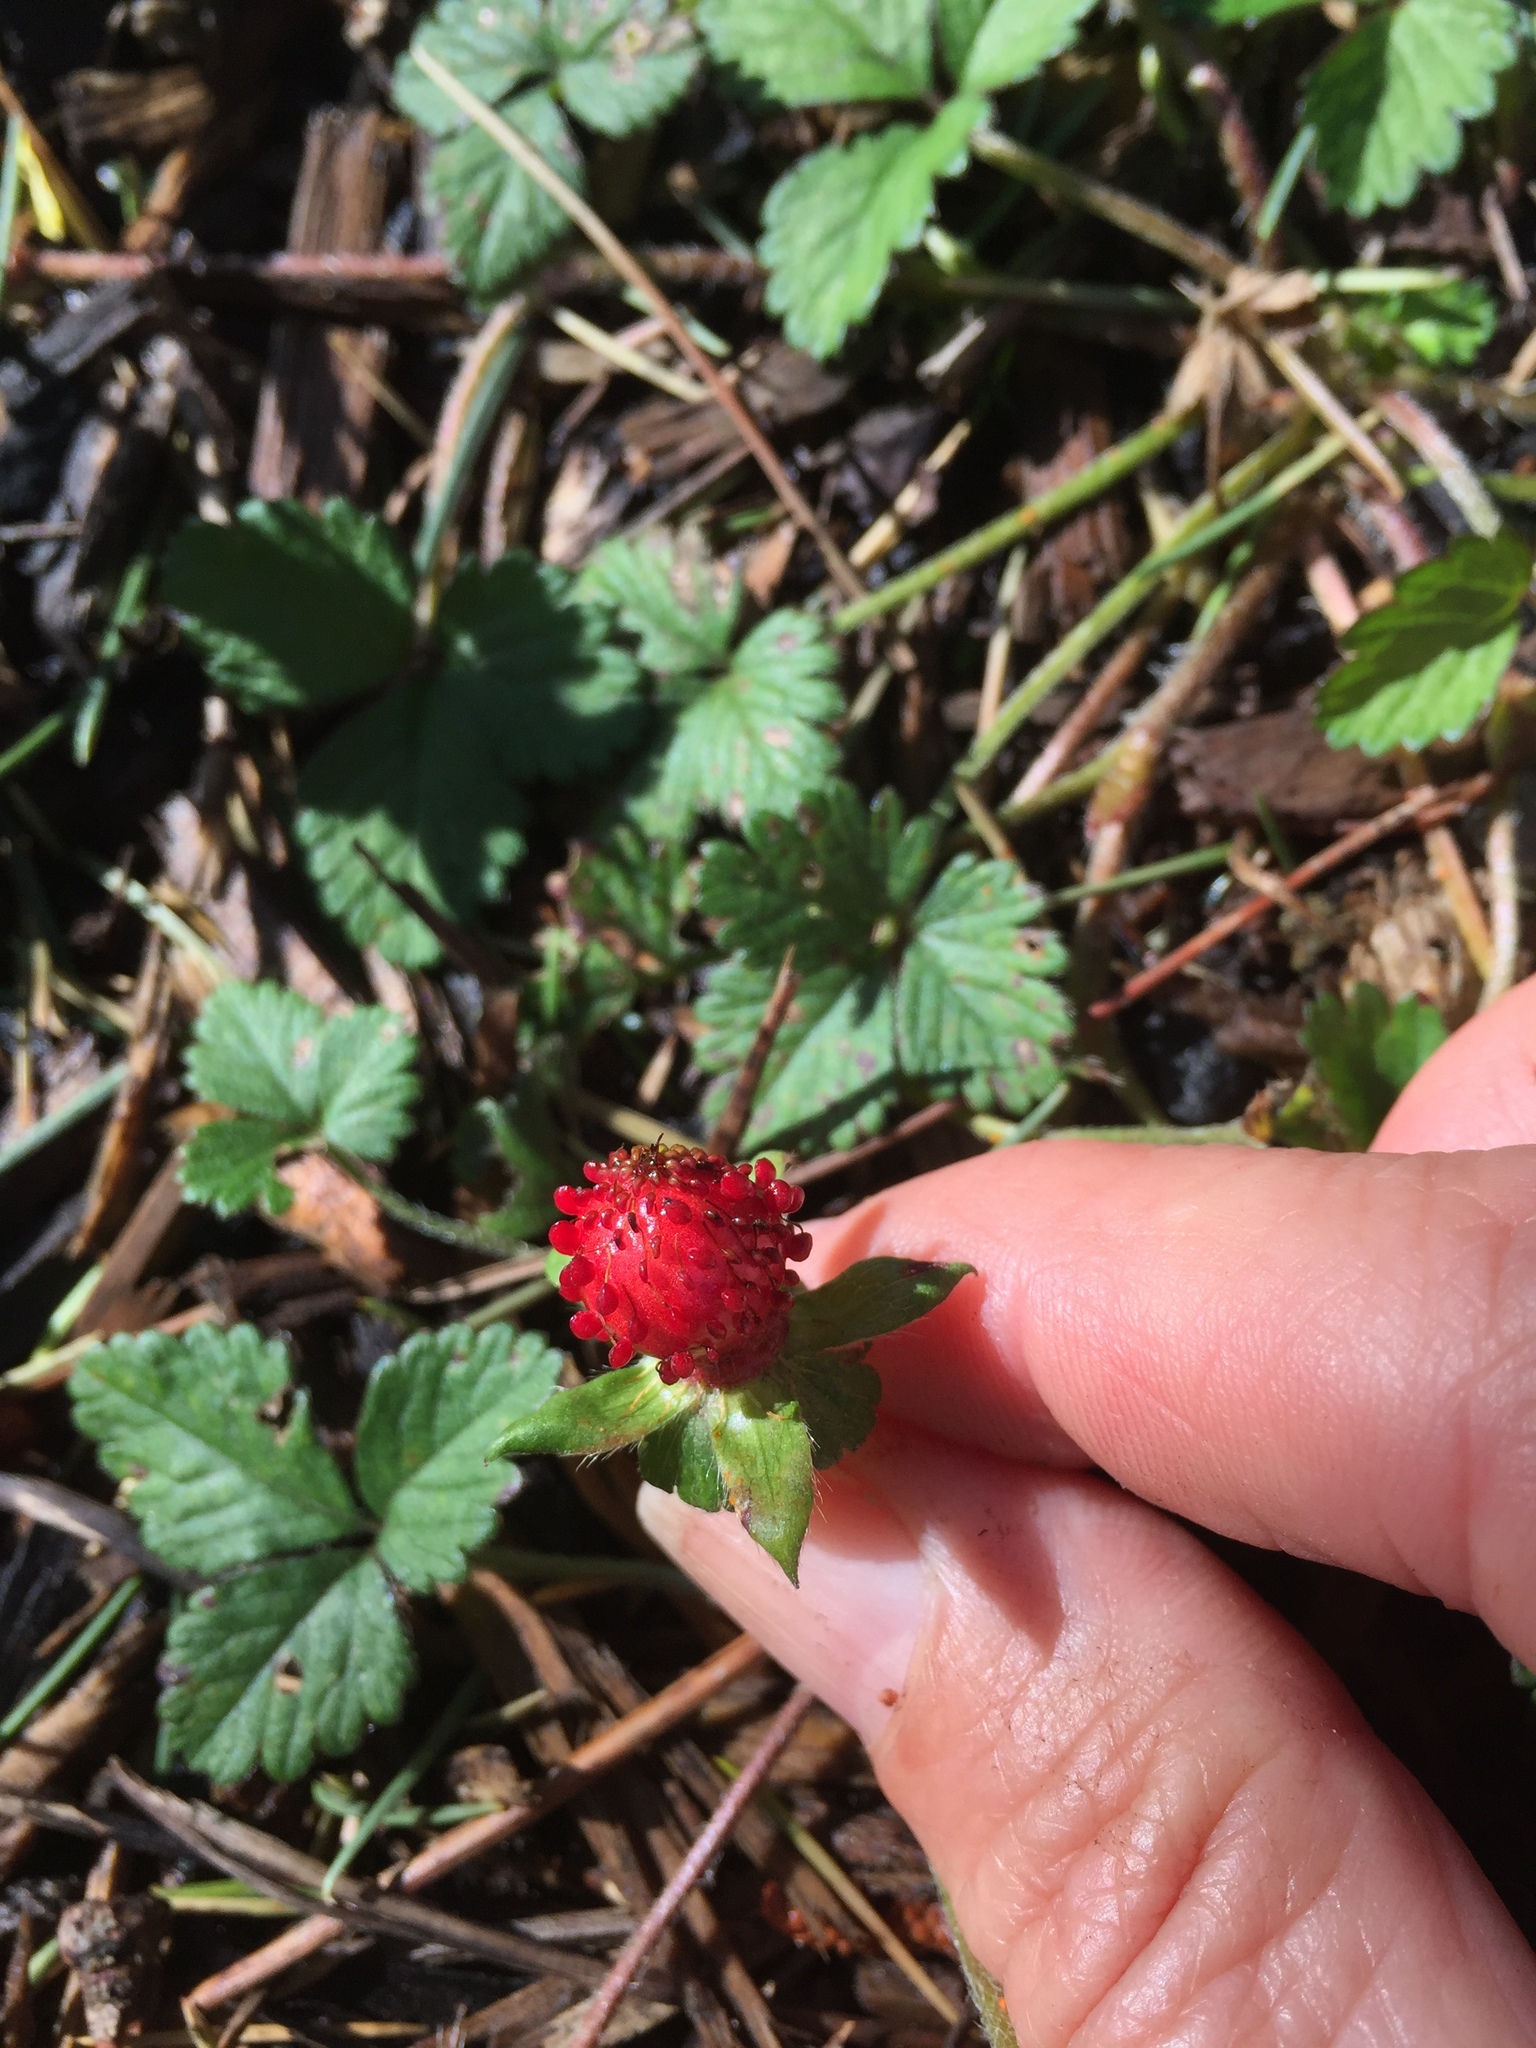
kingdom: Plantae
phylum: Tracheophyta
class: Magnoliopsida
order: Rosales
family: Rosaceae
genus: Potentilla
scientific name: Potentilla indica
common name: Yellow-flowered strawberry
